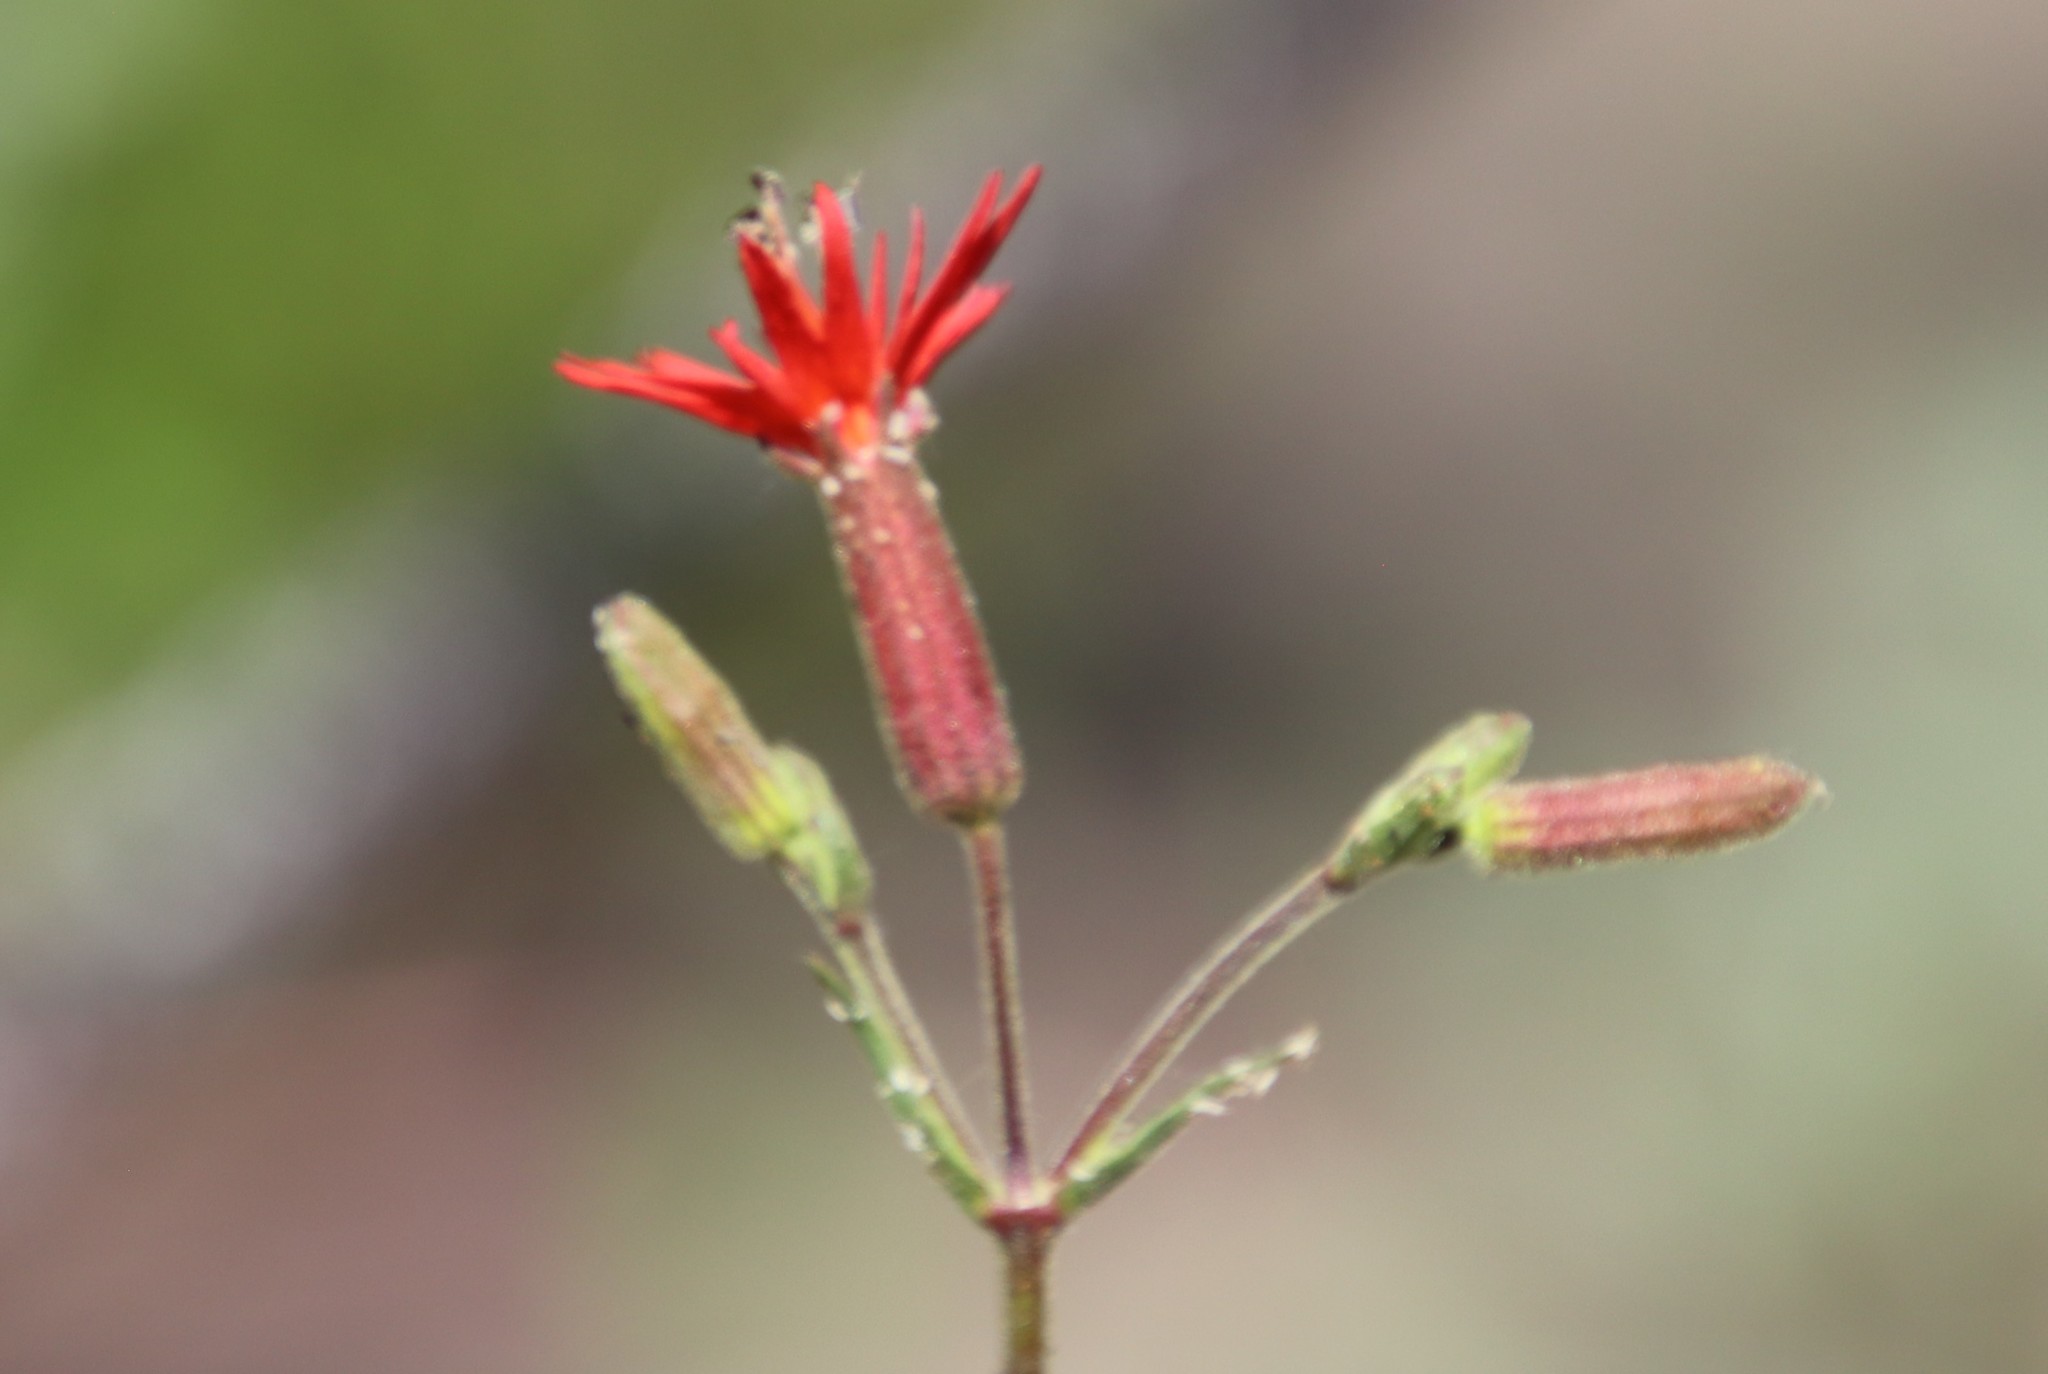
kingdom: Plantae
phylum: Tracheophyta
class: Magnoliopsida
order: Caryophyllales
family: Caryophyllaceae
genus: Silene
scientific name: Silene laciniata
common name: Indian-pink
